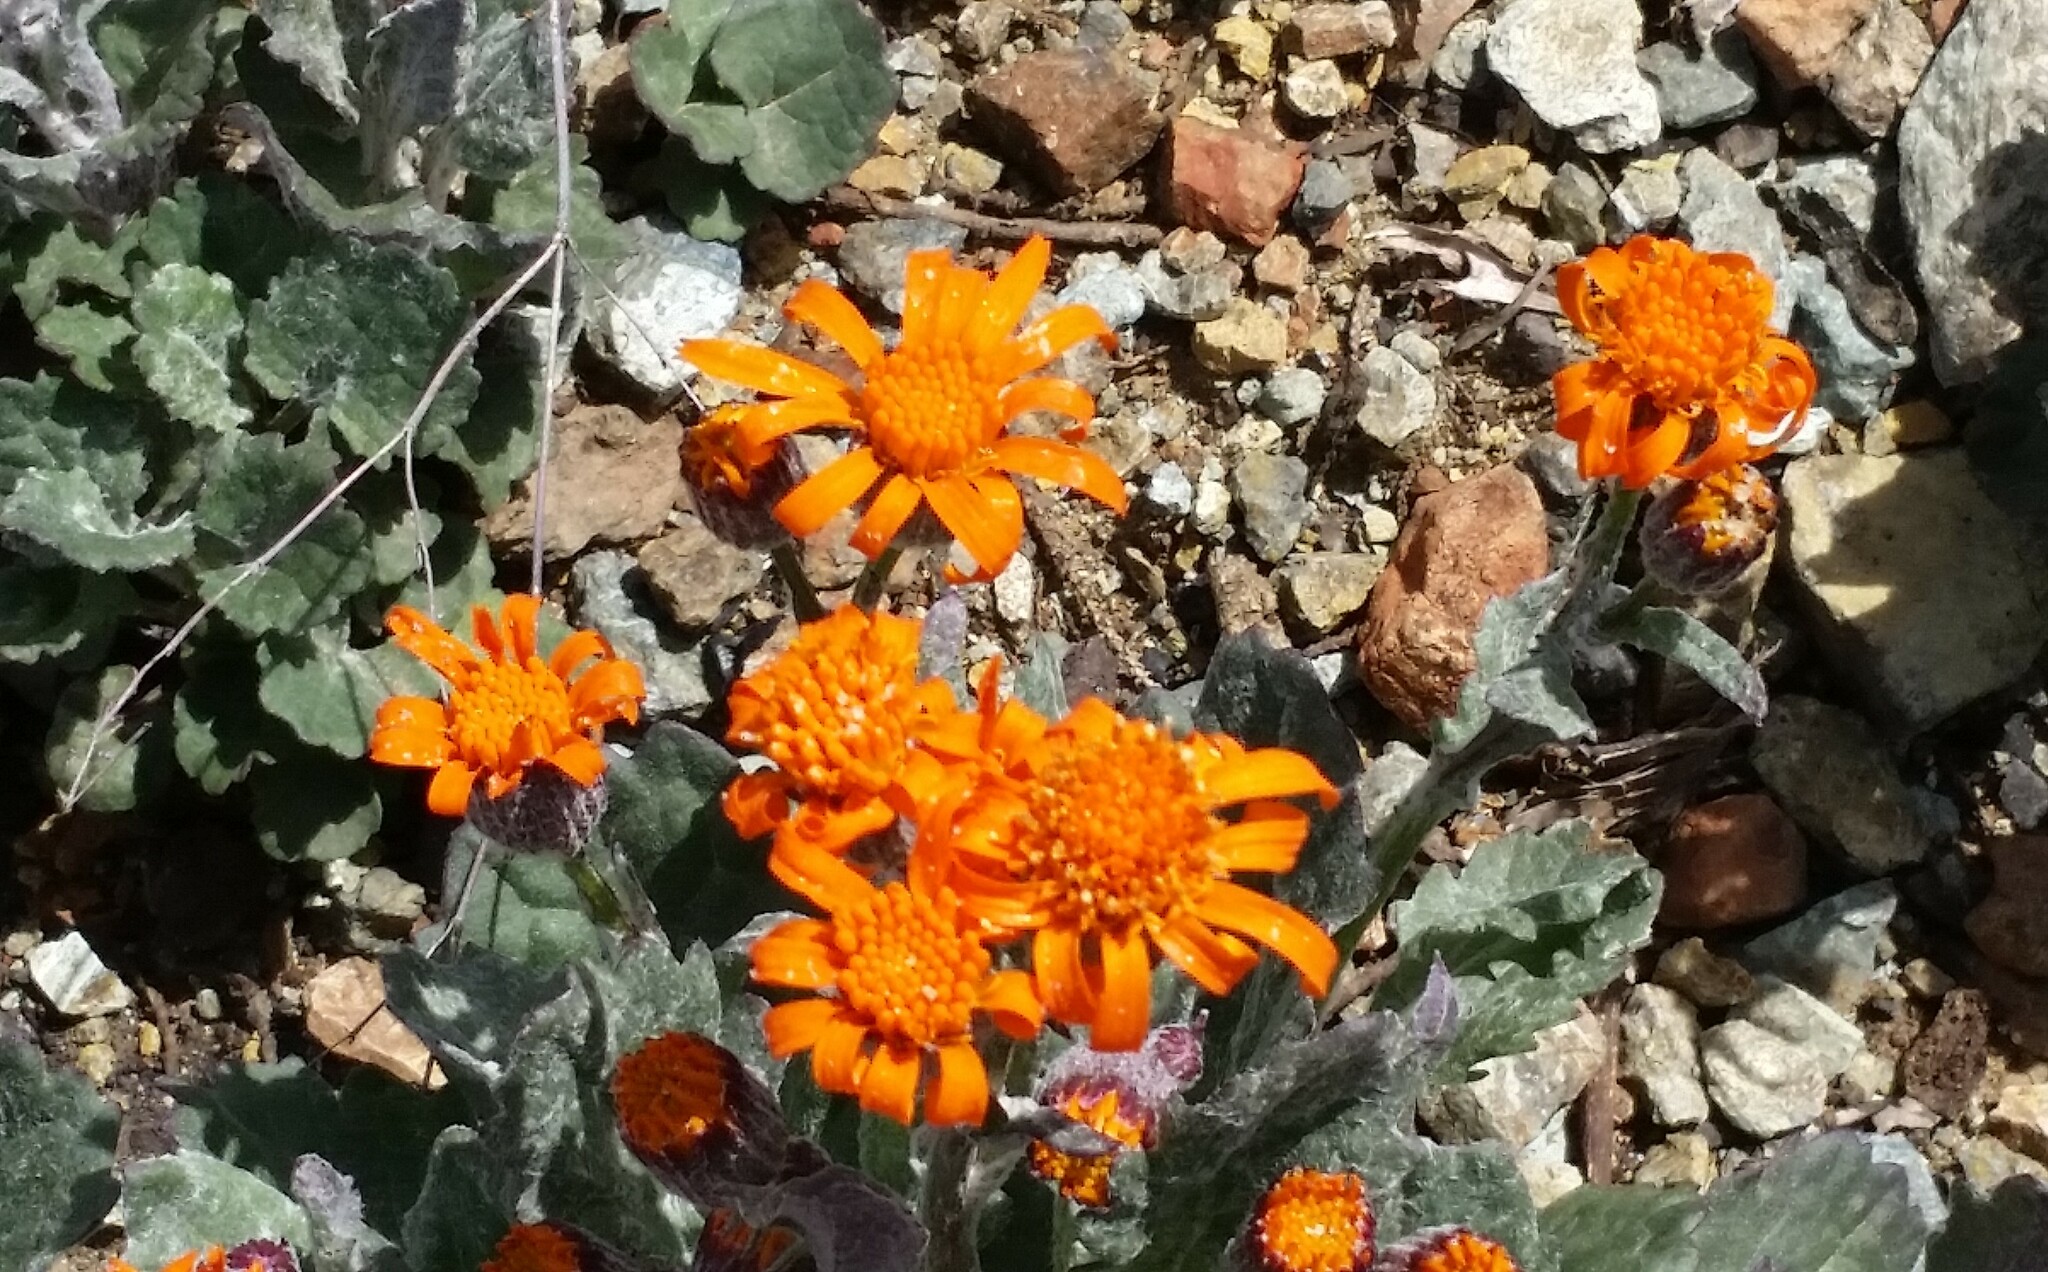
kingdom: Plantae
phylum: Tracheophyta
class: Magnoliopsida
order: Asterales
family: Asteraceae
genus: Packera
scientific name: Packera greenei
